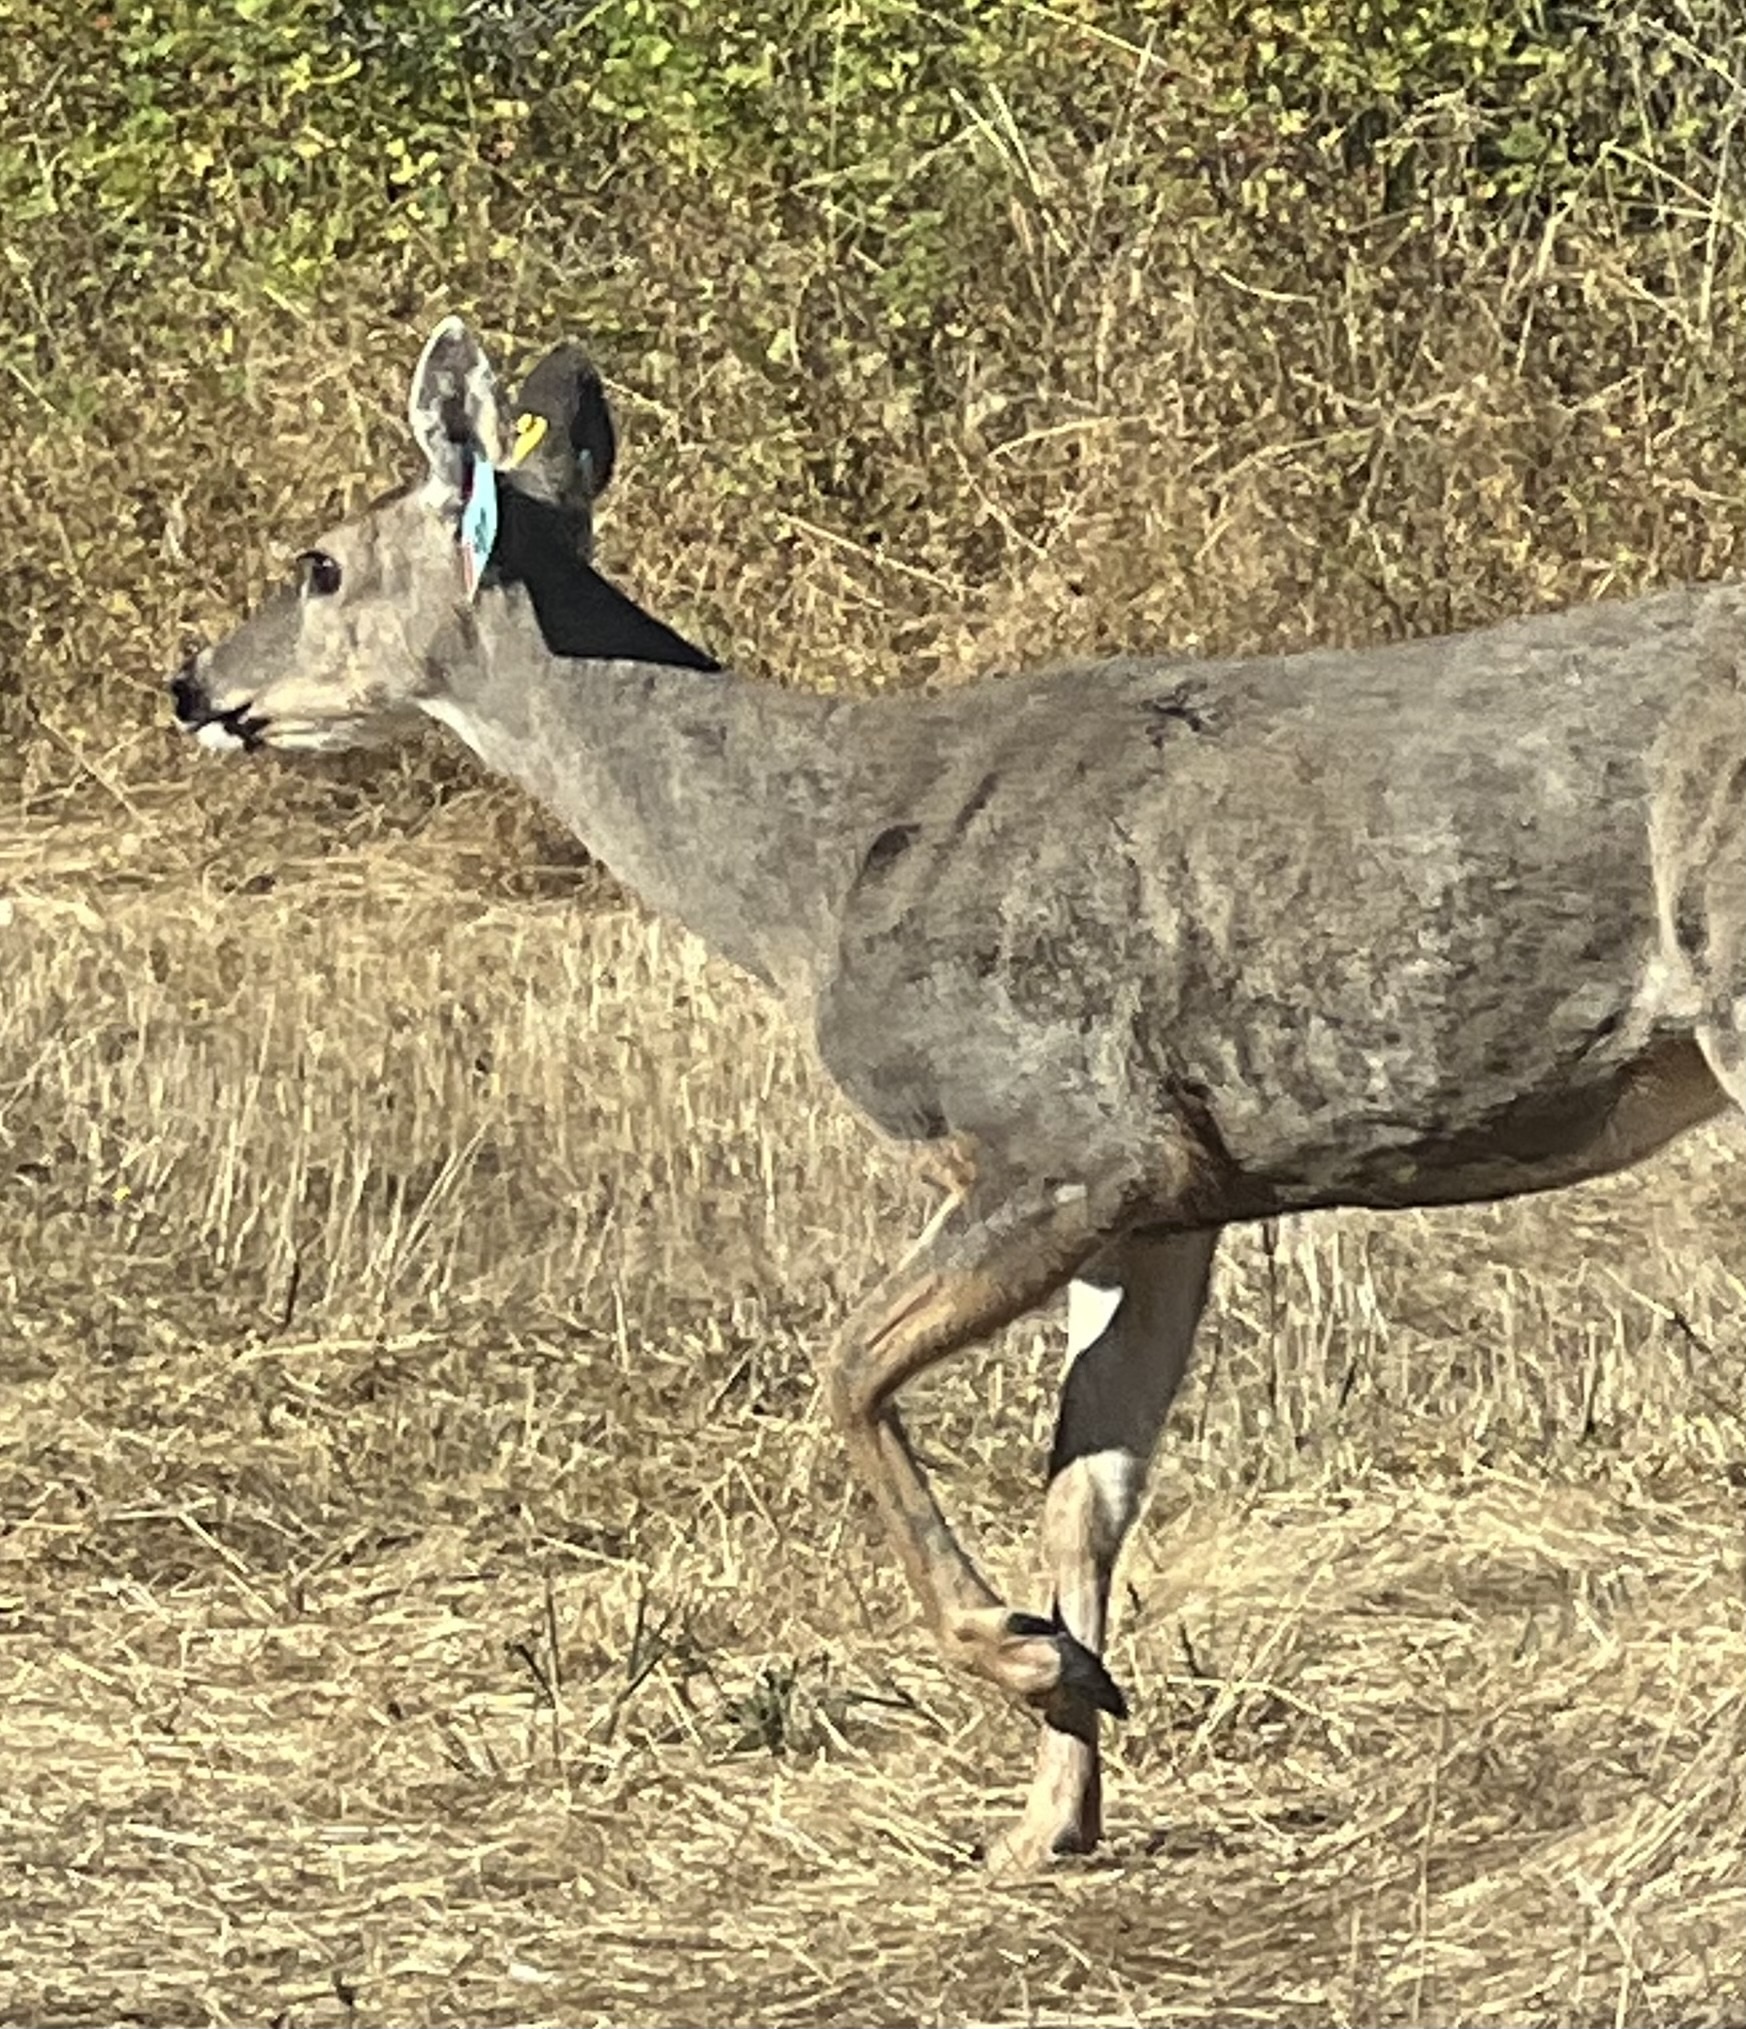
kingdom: Animalia
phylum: Chordata
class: Mammalia
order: Artiodactyla
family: Cervidae
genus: Odocoileus
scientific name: Odocoileus hemionus
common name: Mule deer
